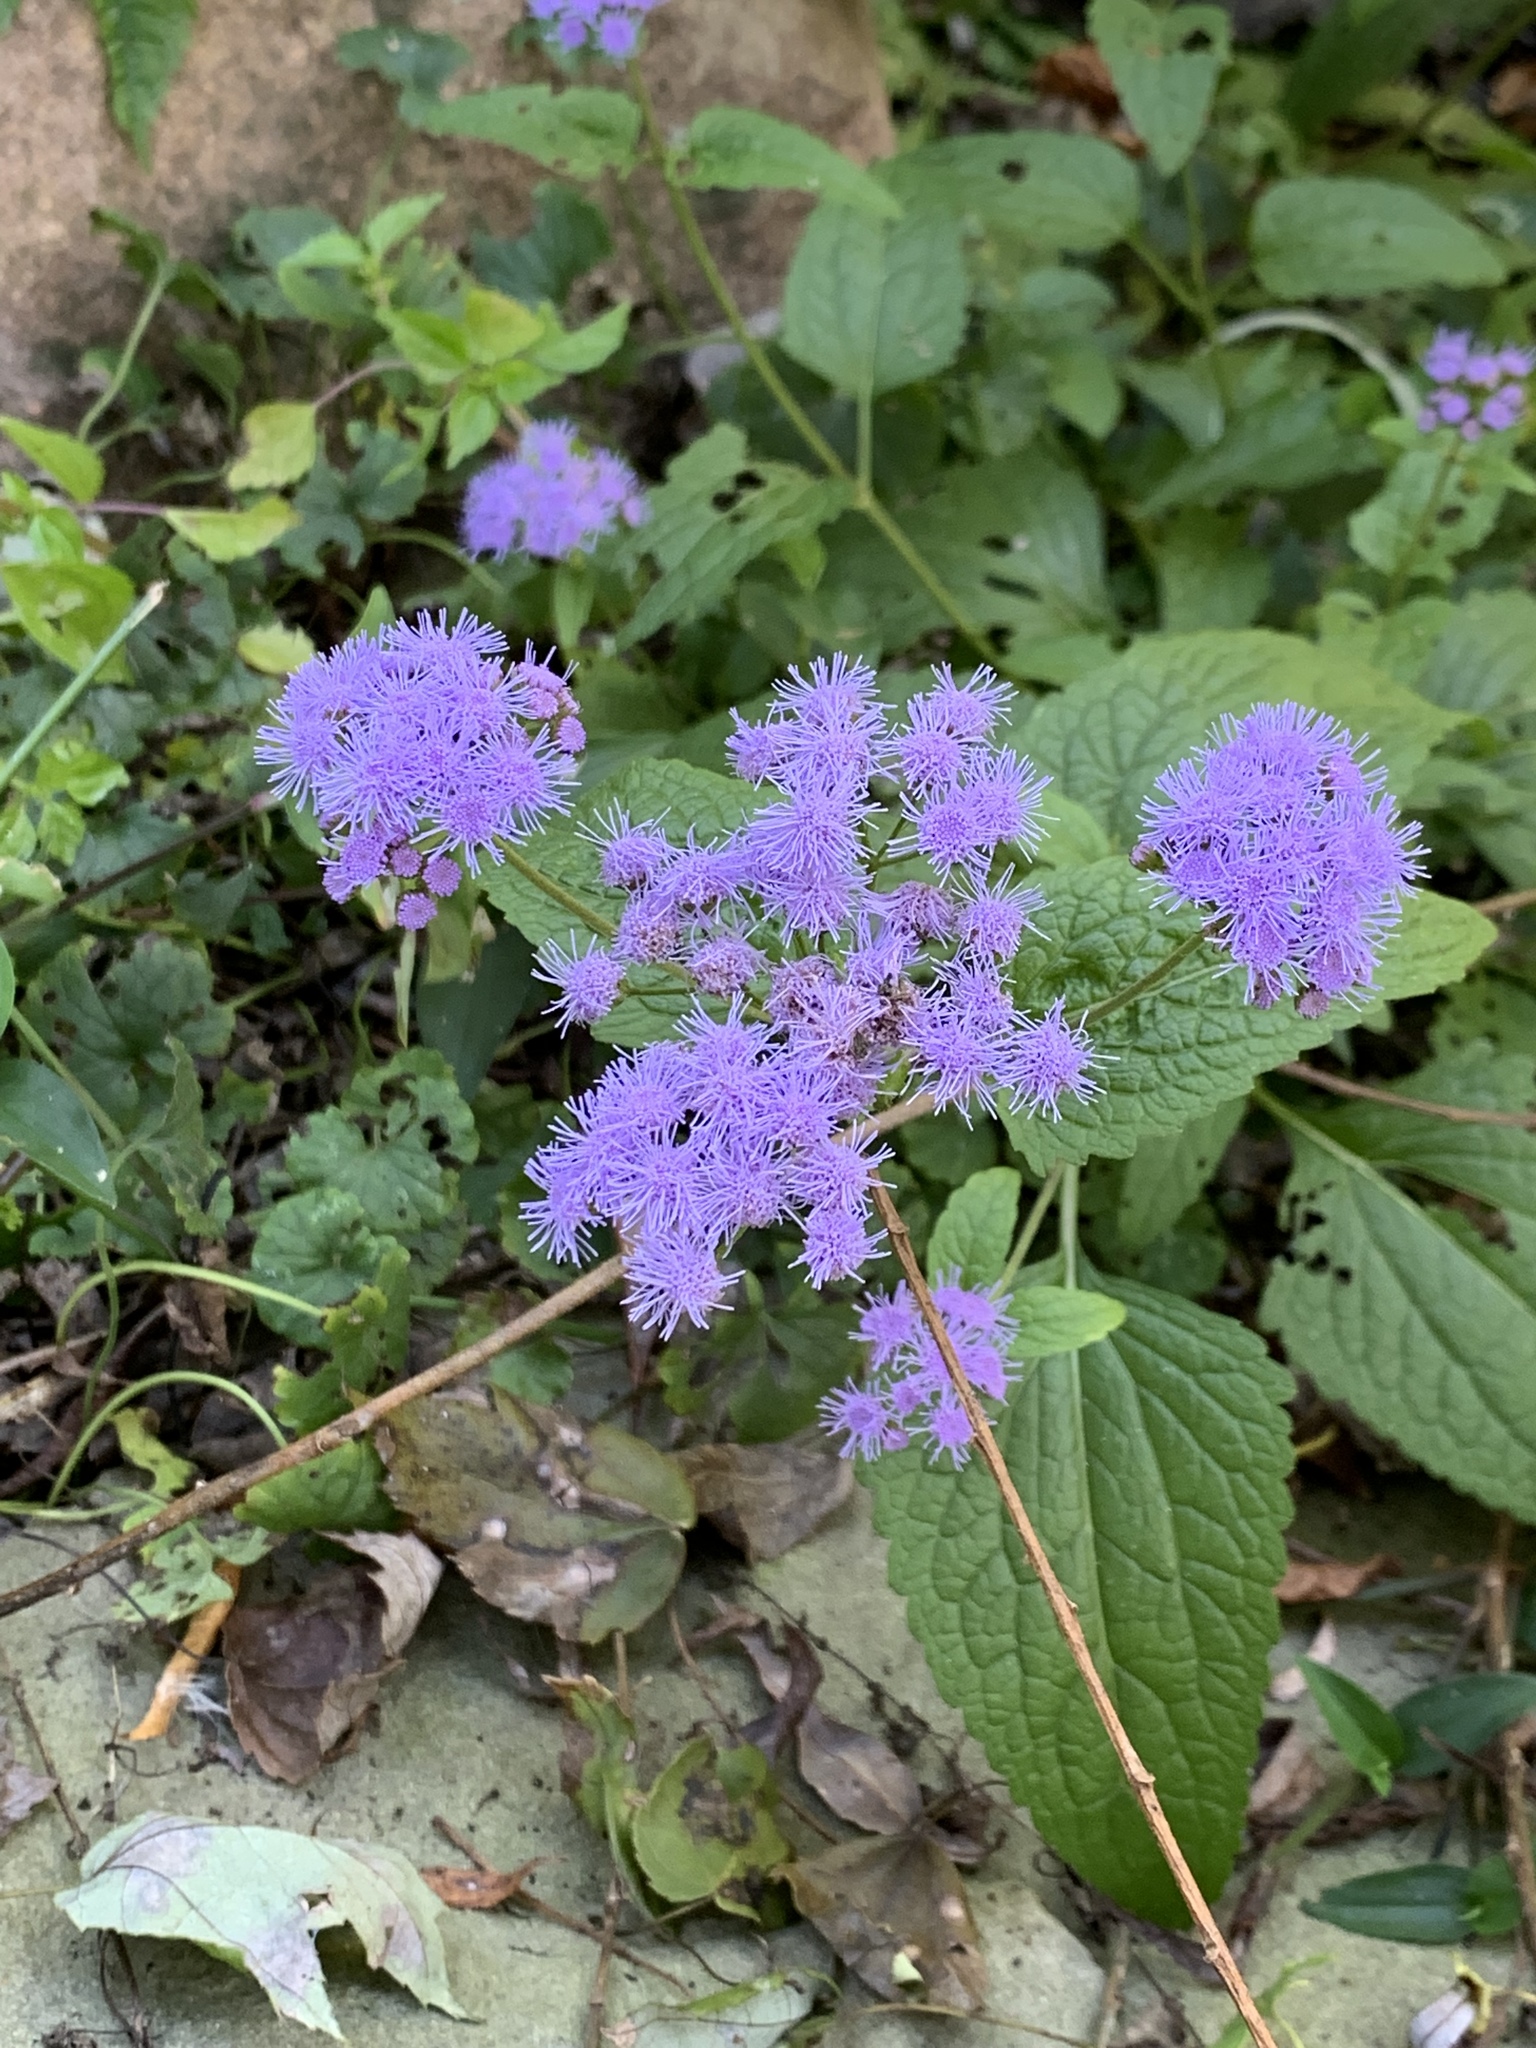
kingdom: Plantae
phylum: Tracheophyta
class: Magnoliopsida
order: Asterales
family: Asteraceae
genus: Conoclinium
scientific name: Conoclinium coelestinum
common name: Blue mistflower
